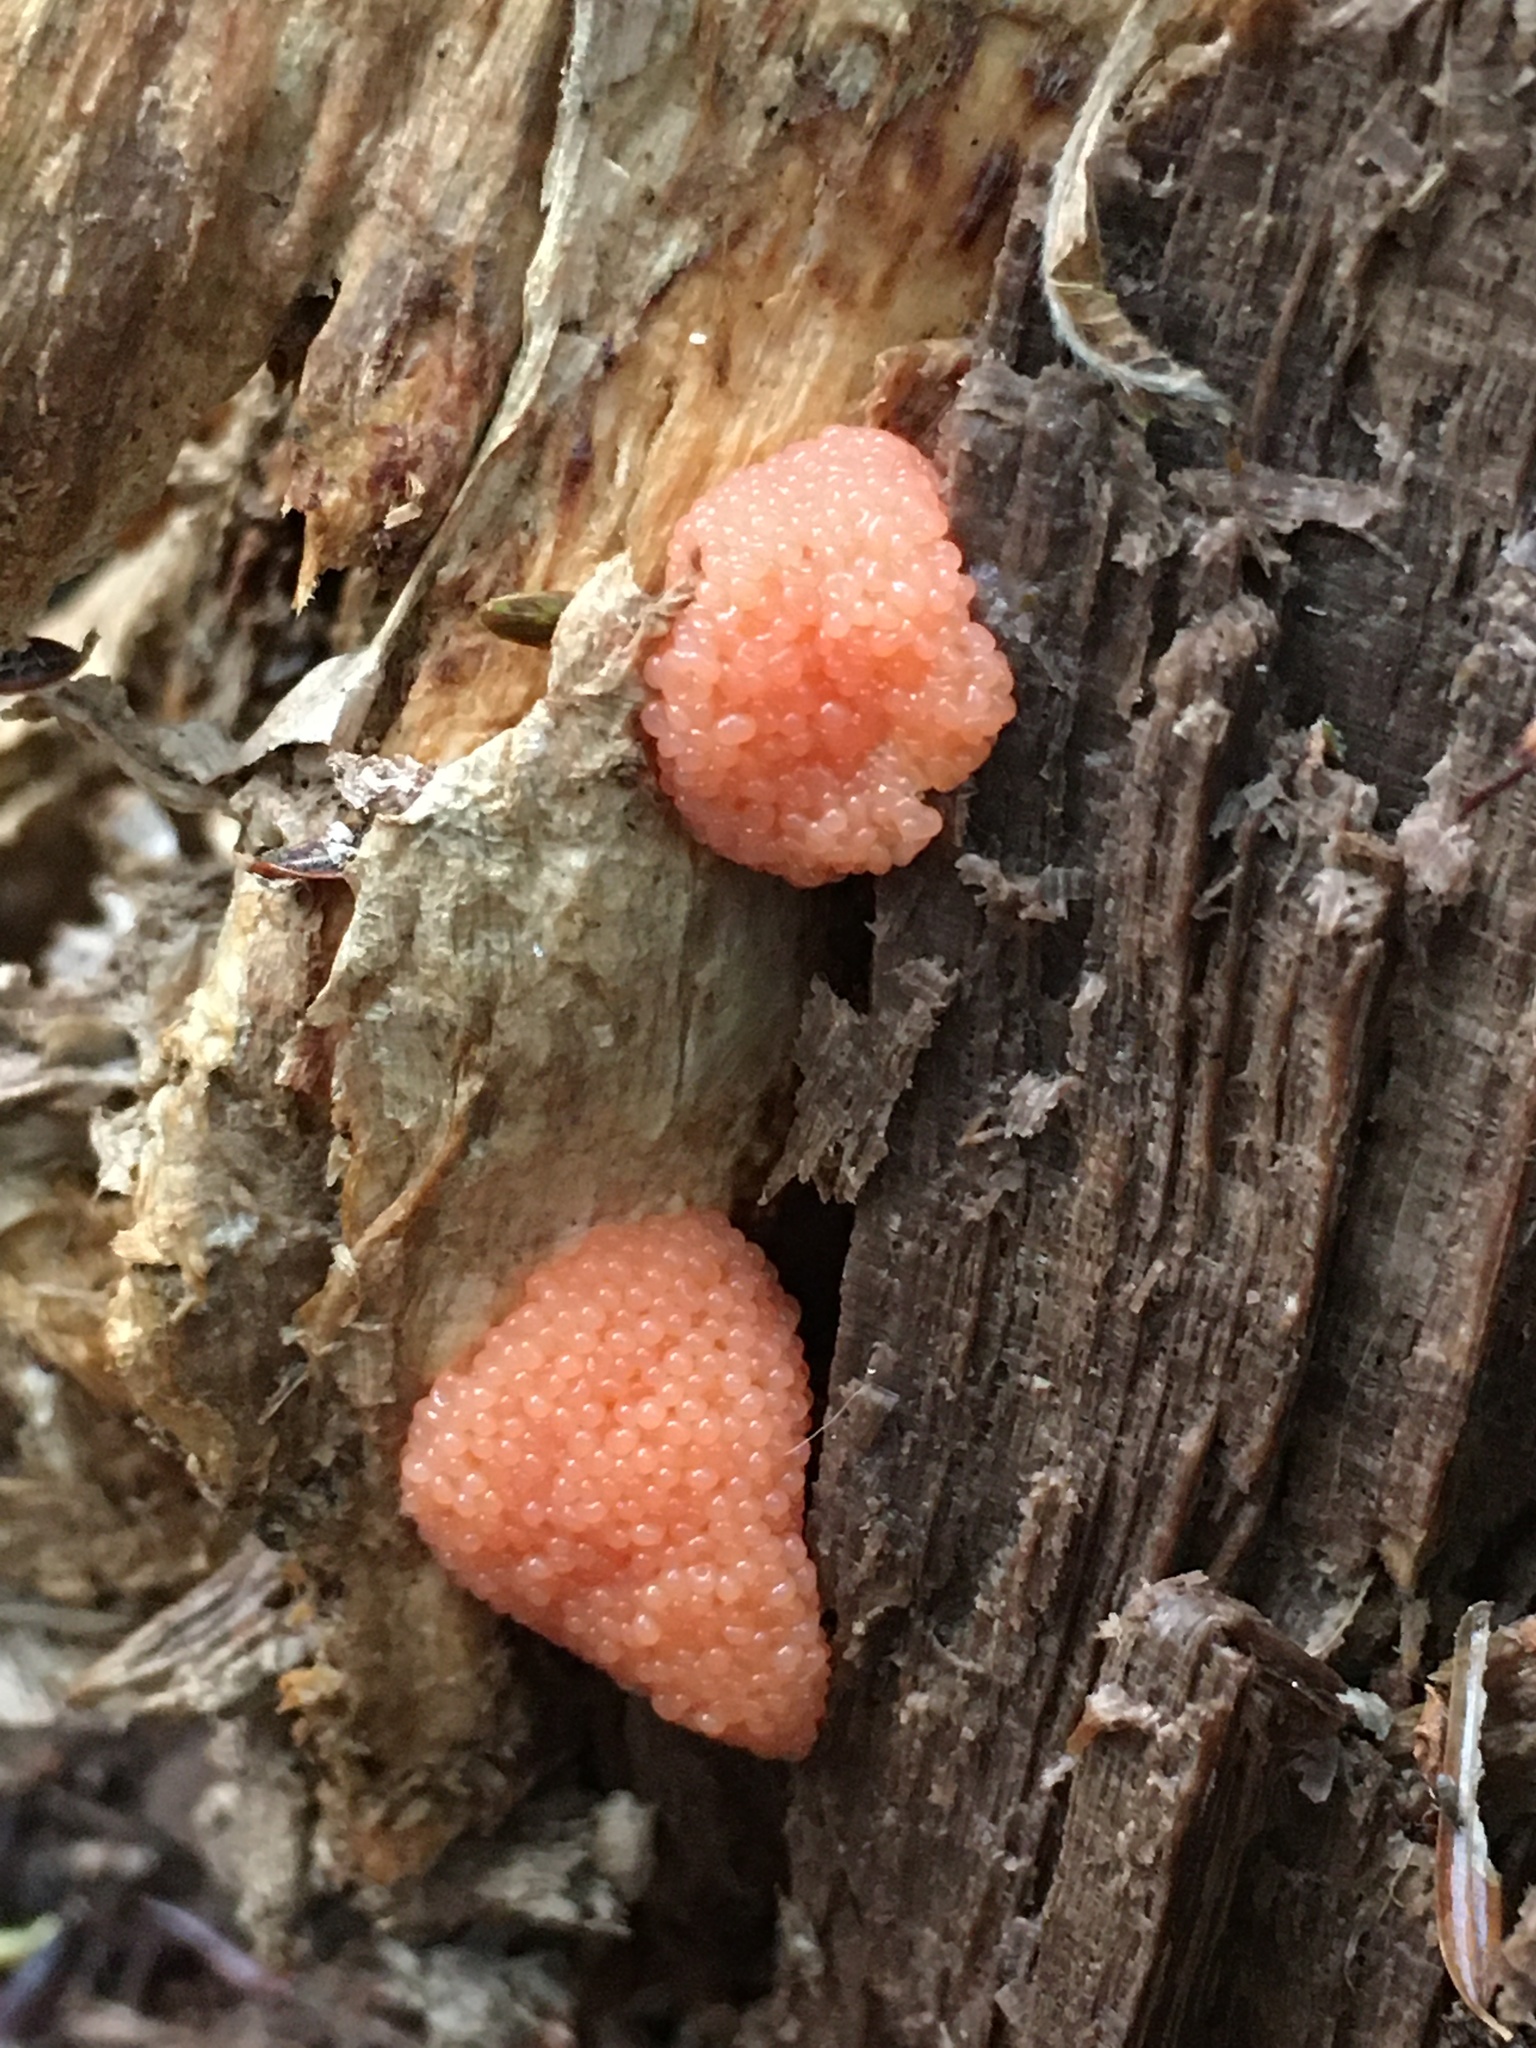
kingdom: Protozoa
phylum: Mycetozoa
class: Myxomycetes
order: Cribrariales
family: Tubiferaceae
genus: Tubifera
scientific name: Tubifera ferruginosa
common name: Red raspberry slime mold
